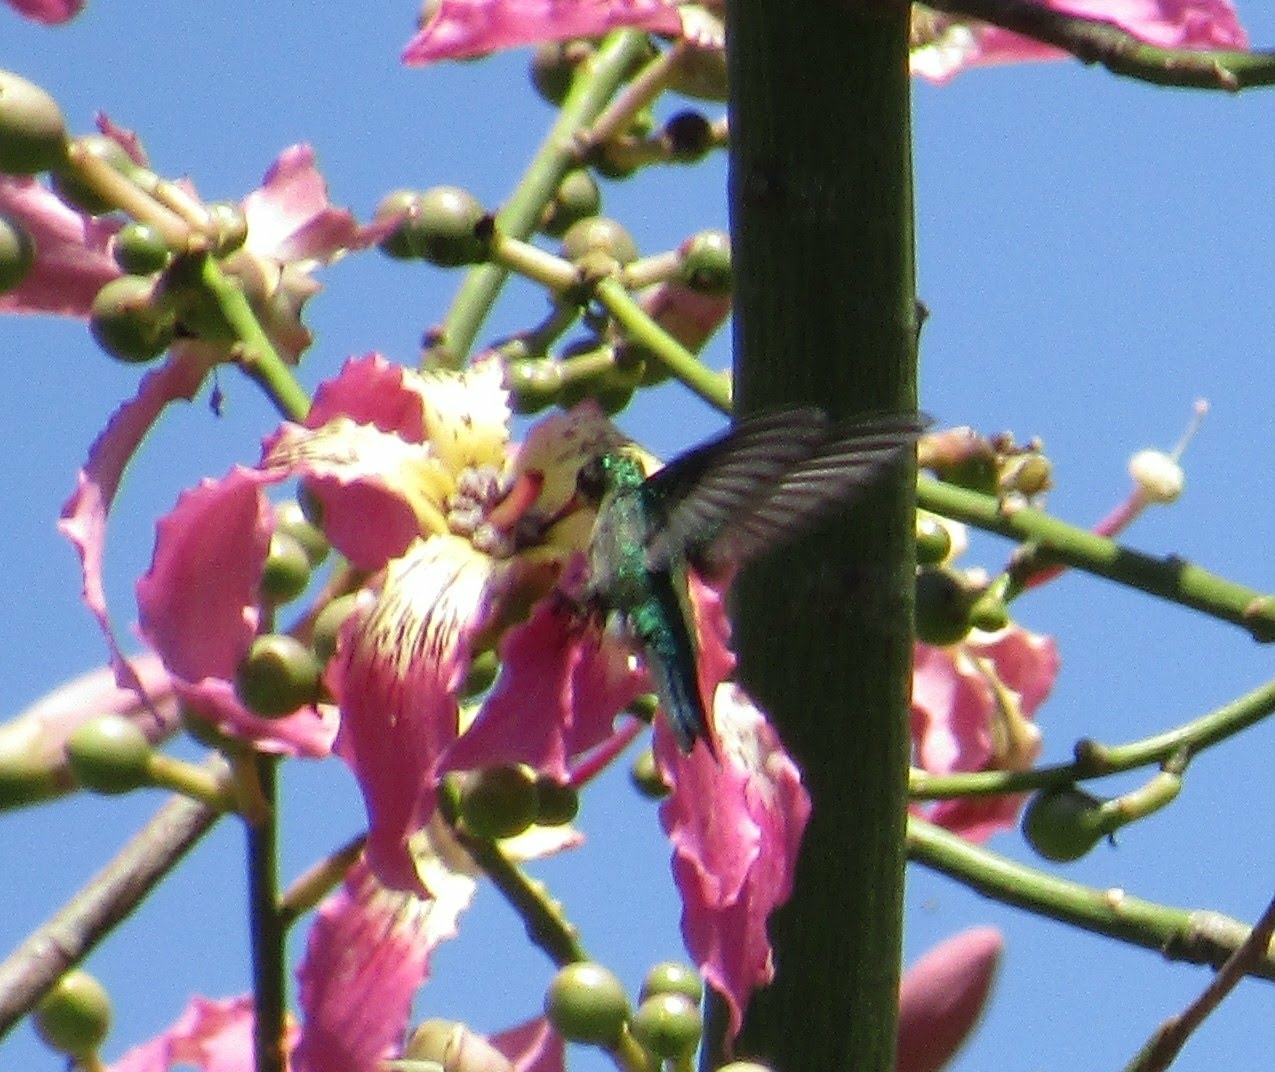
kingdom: Animalia
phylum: Chordata
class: Aves
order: Apodiformes
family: Trochilidae
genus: Chlorostilbon
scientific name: Chlorostilbon lucidus
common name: Glittering-bellied emerald
